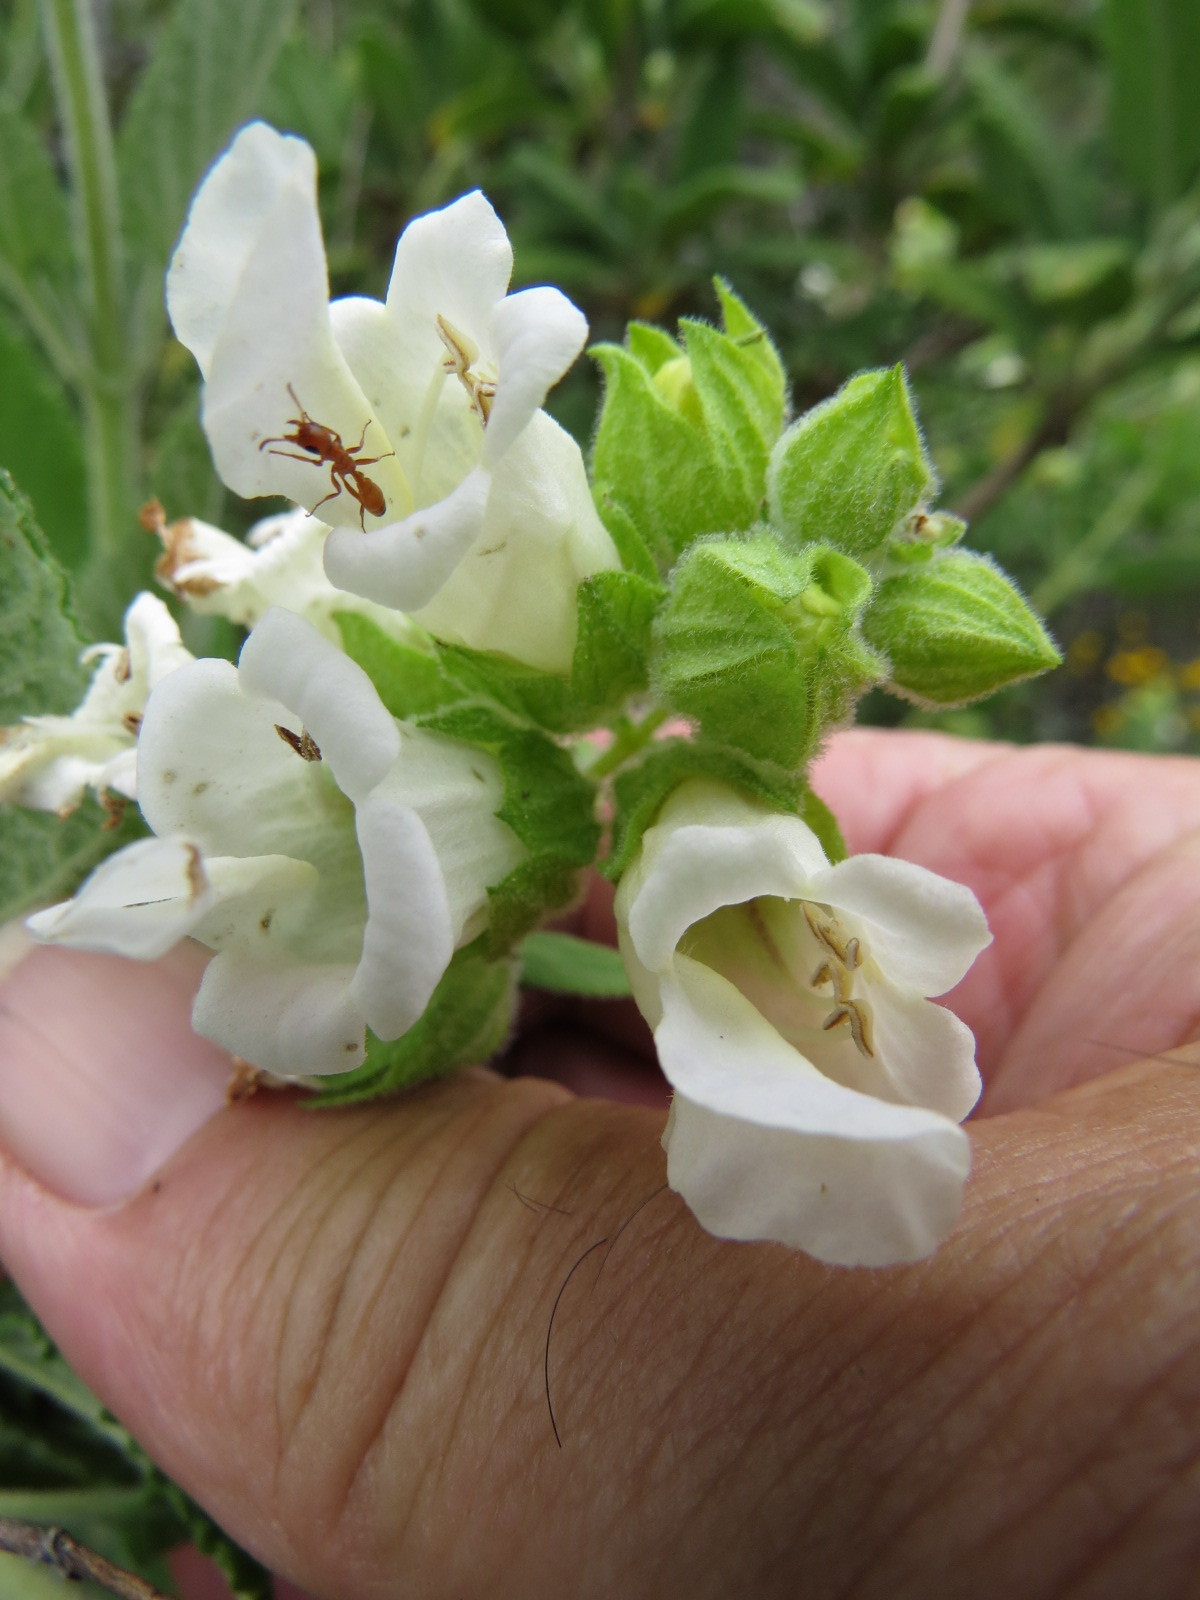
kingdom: Animalia
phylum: Arthropoda
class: Insecta
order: Hymenoptera
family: Formicidae
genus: Pseudomyrmex
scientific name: Pseudomyrmex apache
